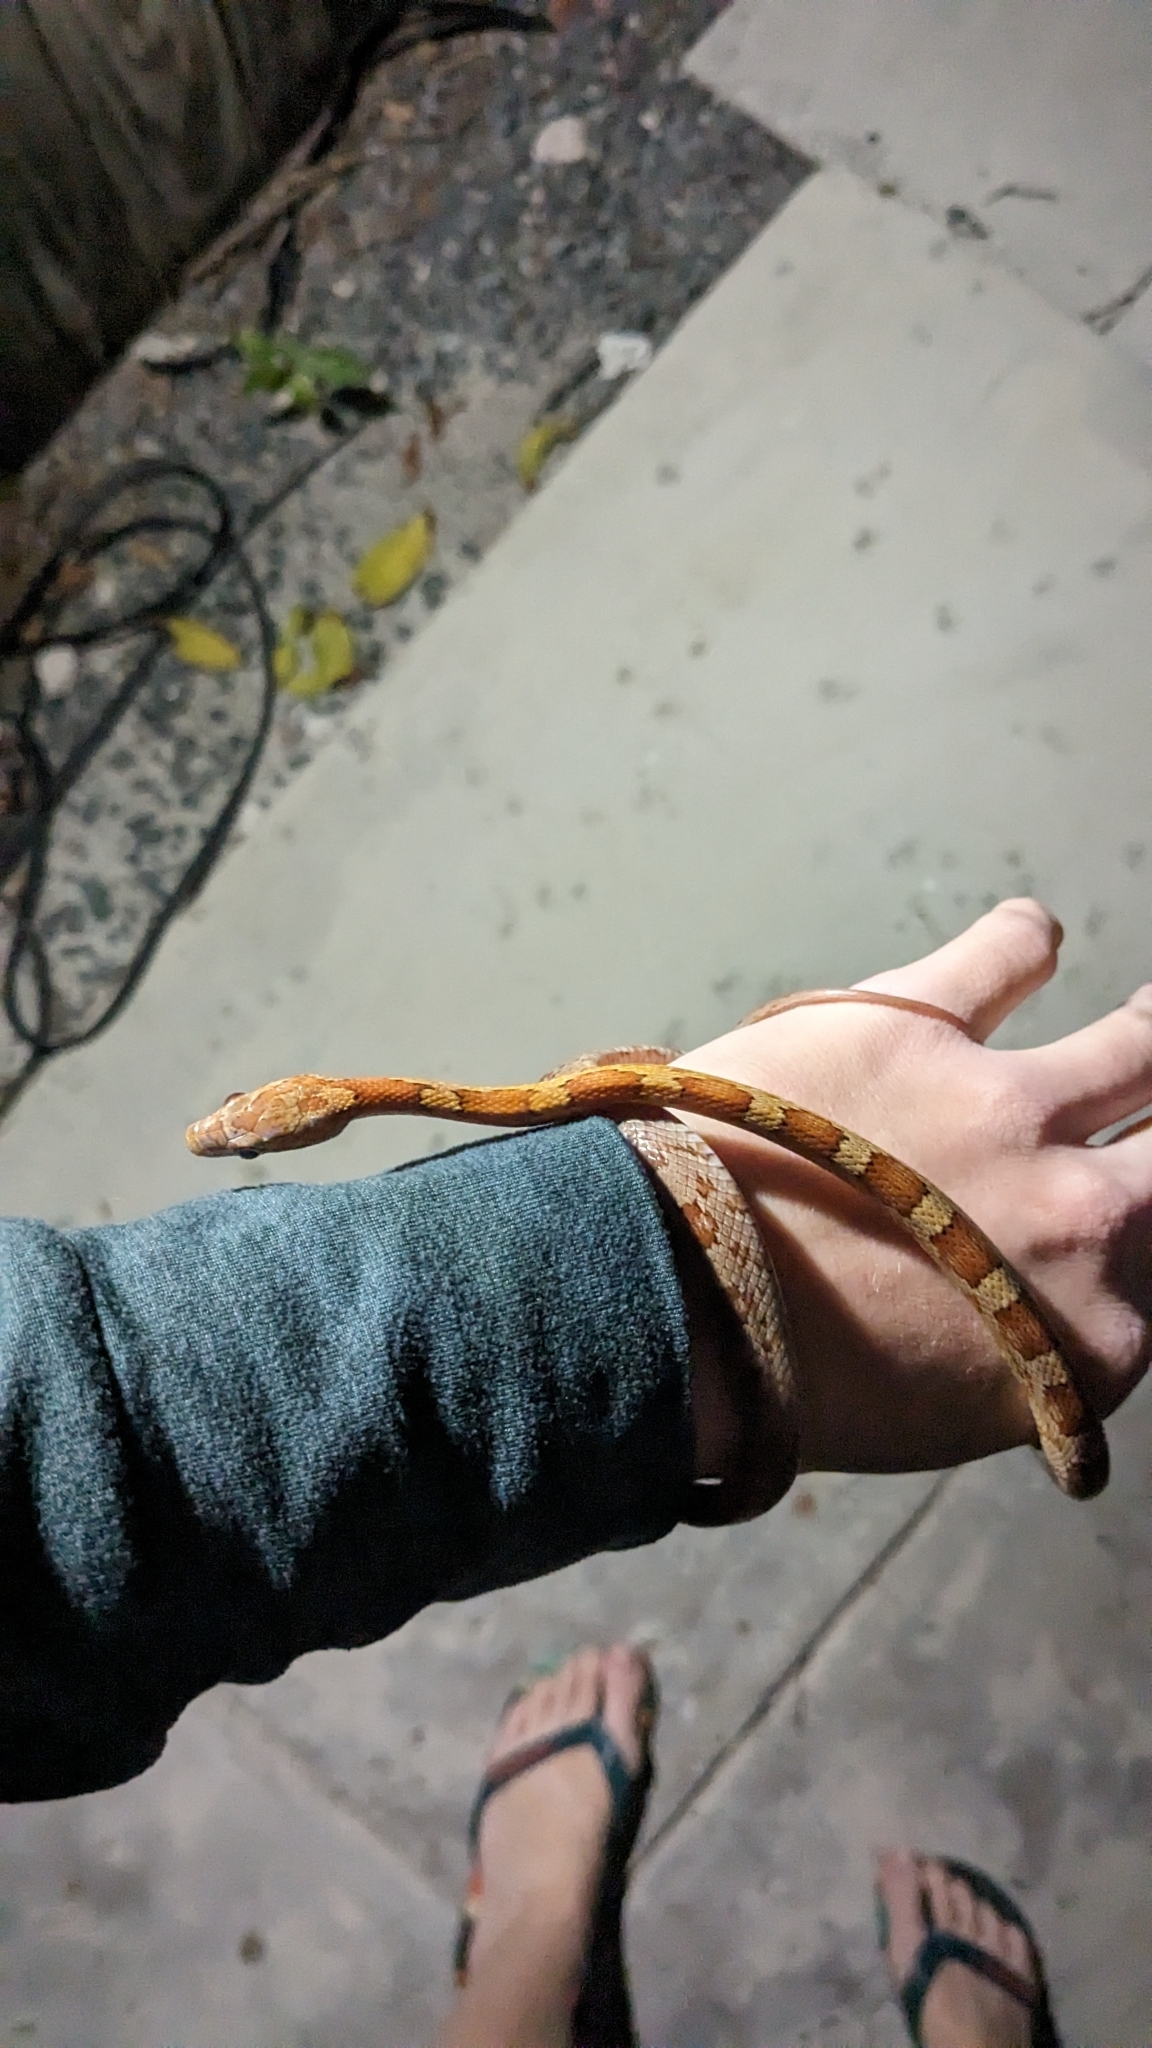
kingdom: Animalia
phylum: Chordata
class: Squamata
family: Colubridae
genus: Pantherophis
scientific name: Pantherophis guttatus
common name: Red cornsnake
